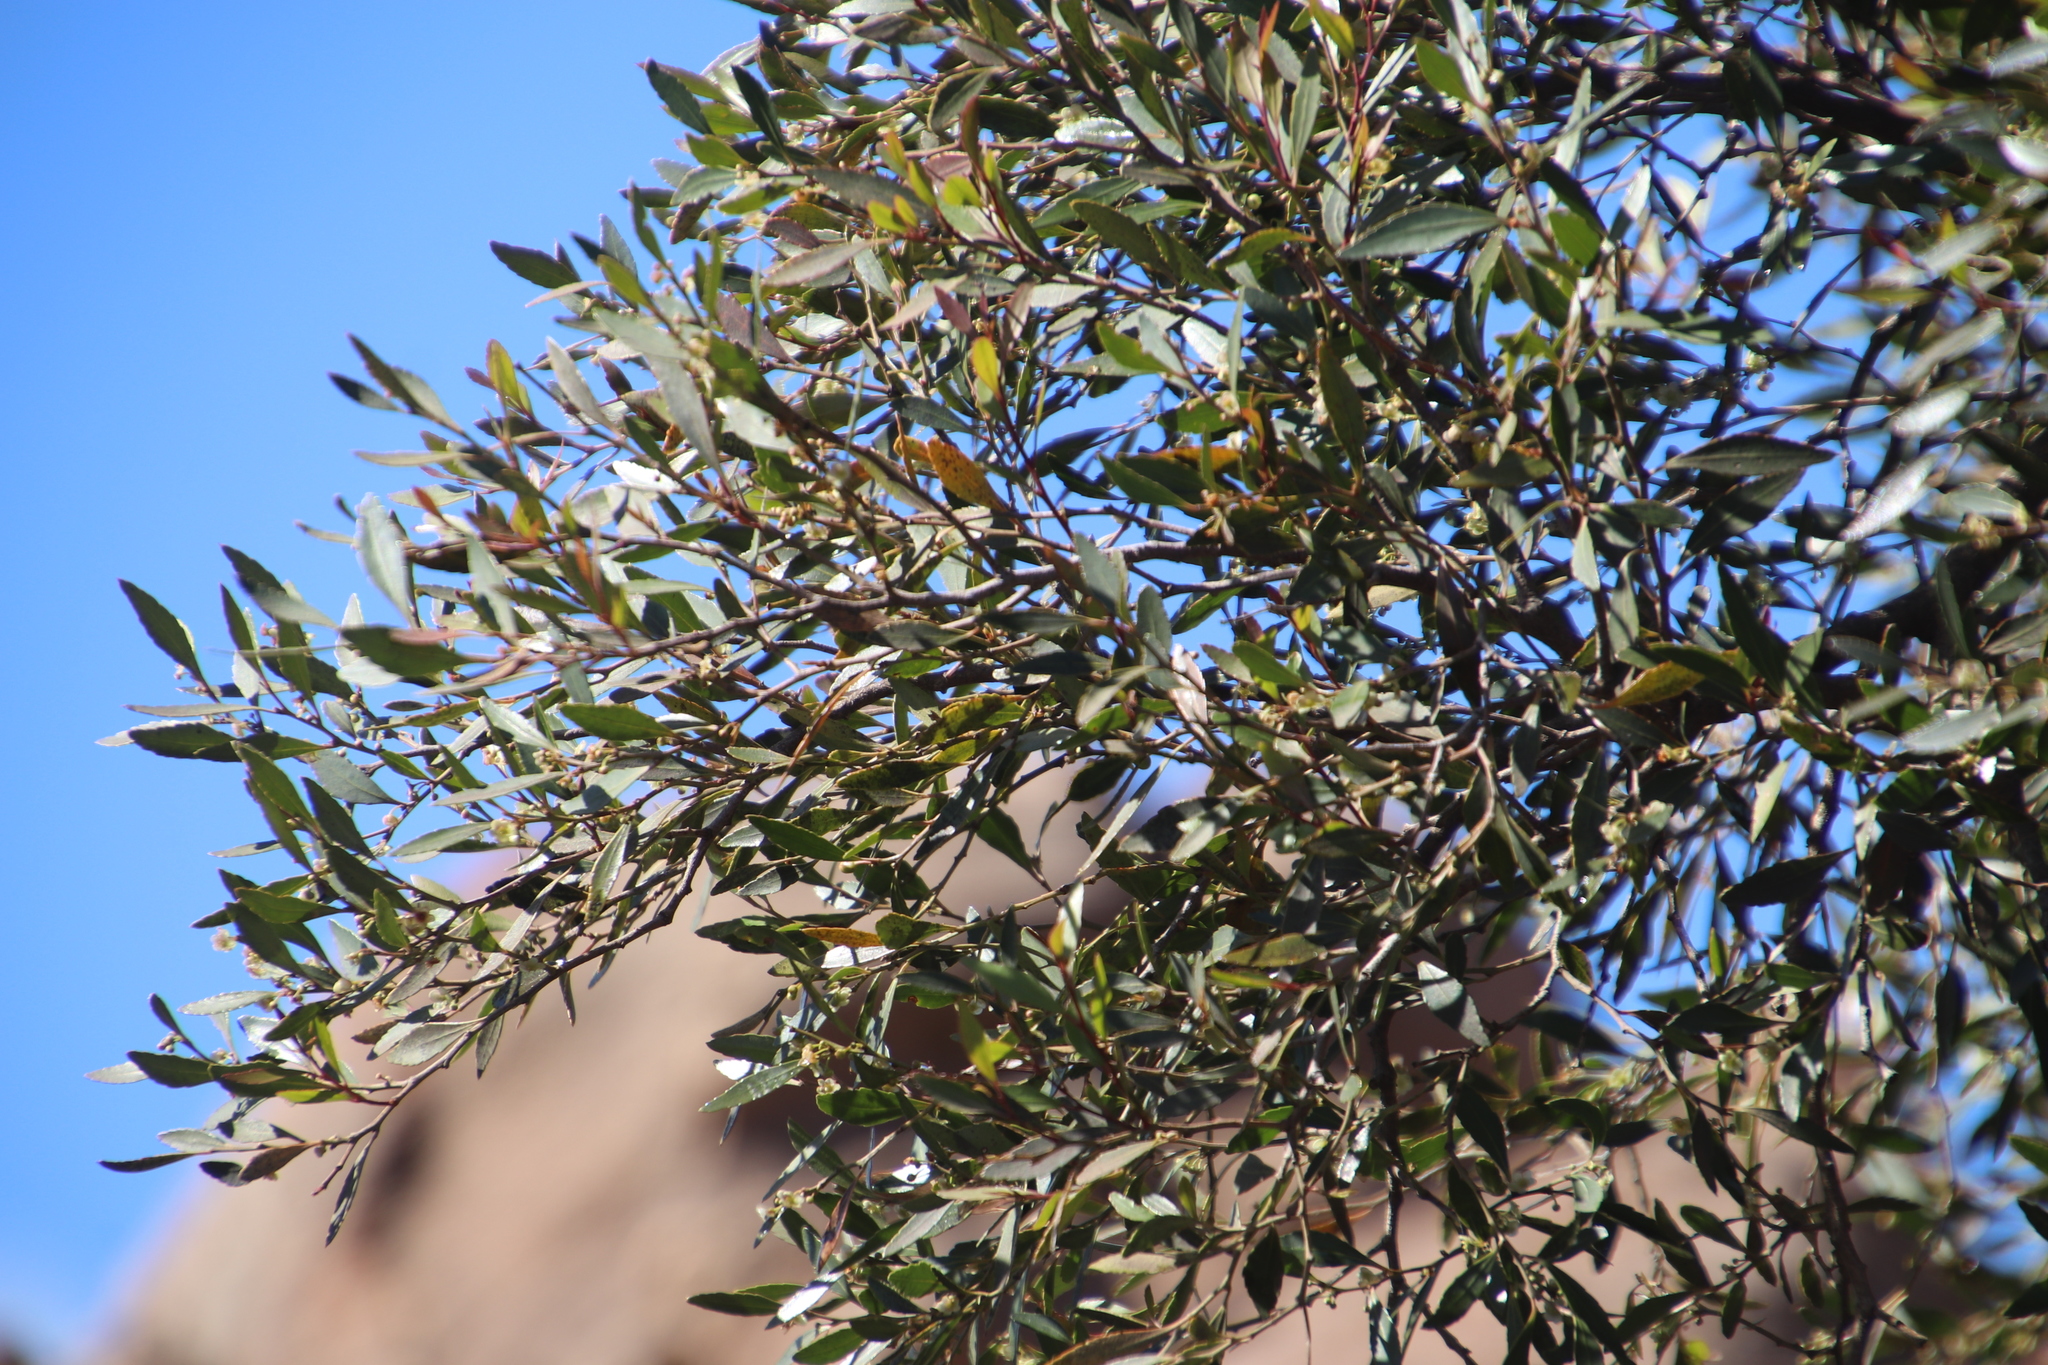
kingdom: Plantae
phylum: Tracheophyta
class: Magnoliopsida
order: Celastrales
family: Celastraceae
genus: Gymnosporia
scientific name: Gymnosporia acuminata
